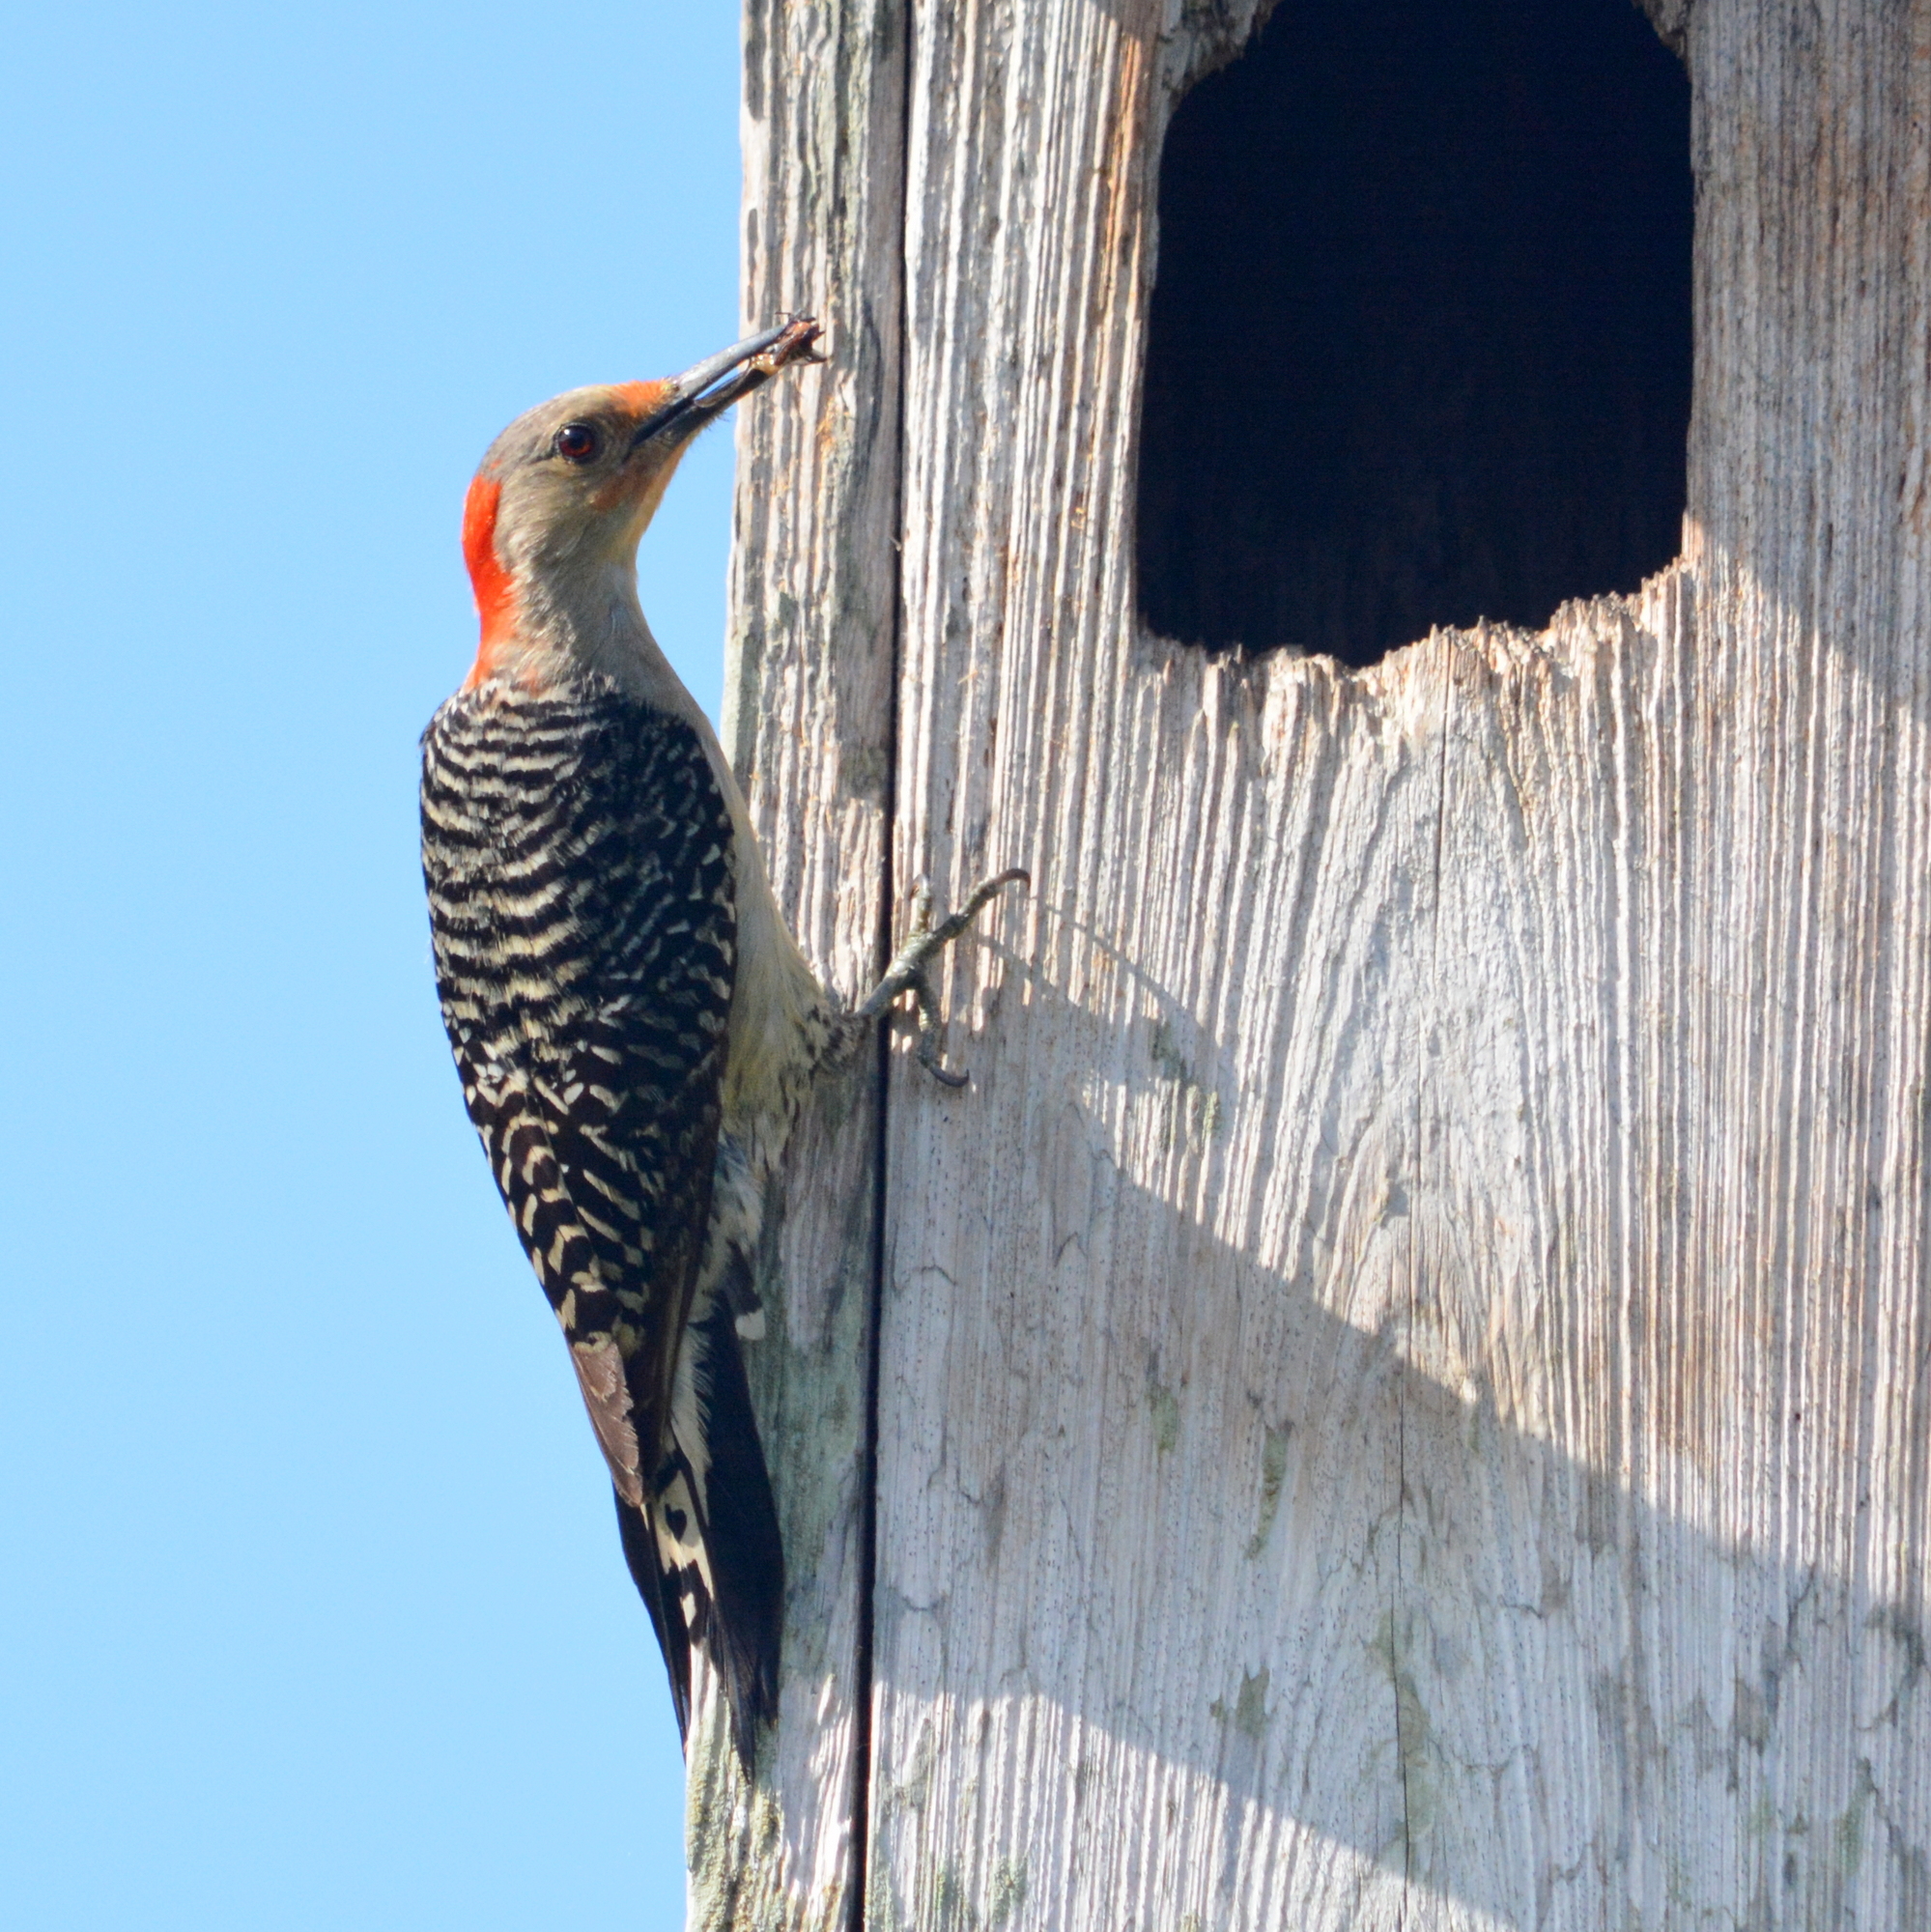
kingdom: Animalia
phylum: Chordata
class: Aves
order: Piciformes
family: Picidae
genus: Melanerpes
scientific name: Melanerpes carolinus
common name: Red-bellied woodpecker
